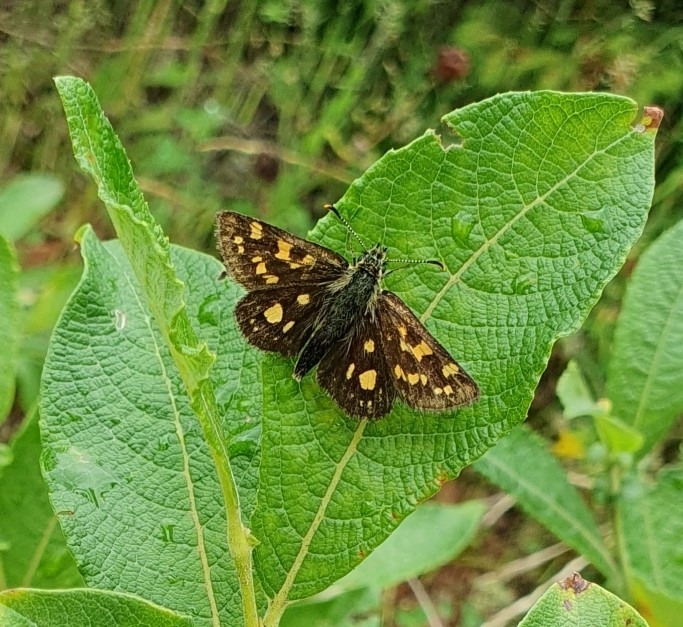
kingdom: Animalia
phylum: Arthropoda
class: Insecta
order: Lepidoptera
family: Hesperiidae
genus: Carterocephalus
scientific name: Carterocephalus palaemon
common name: Chequered skipper
